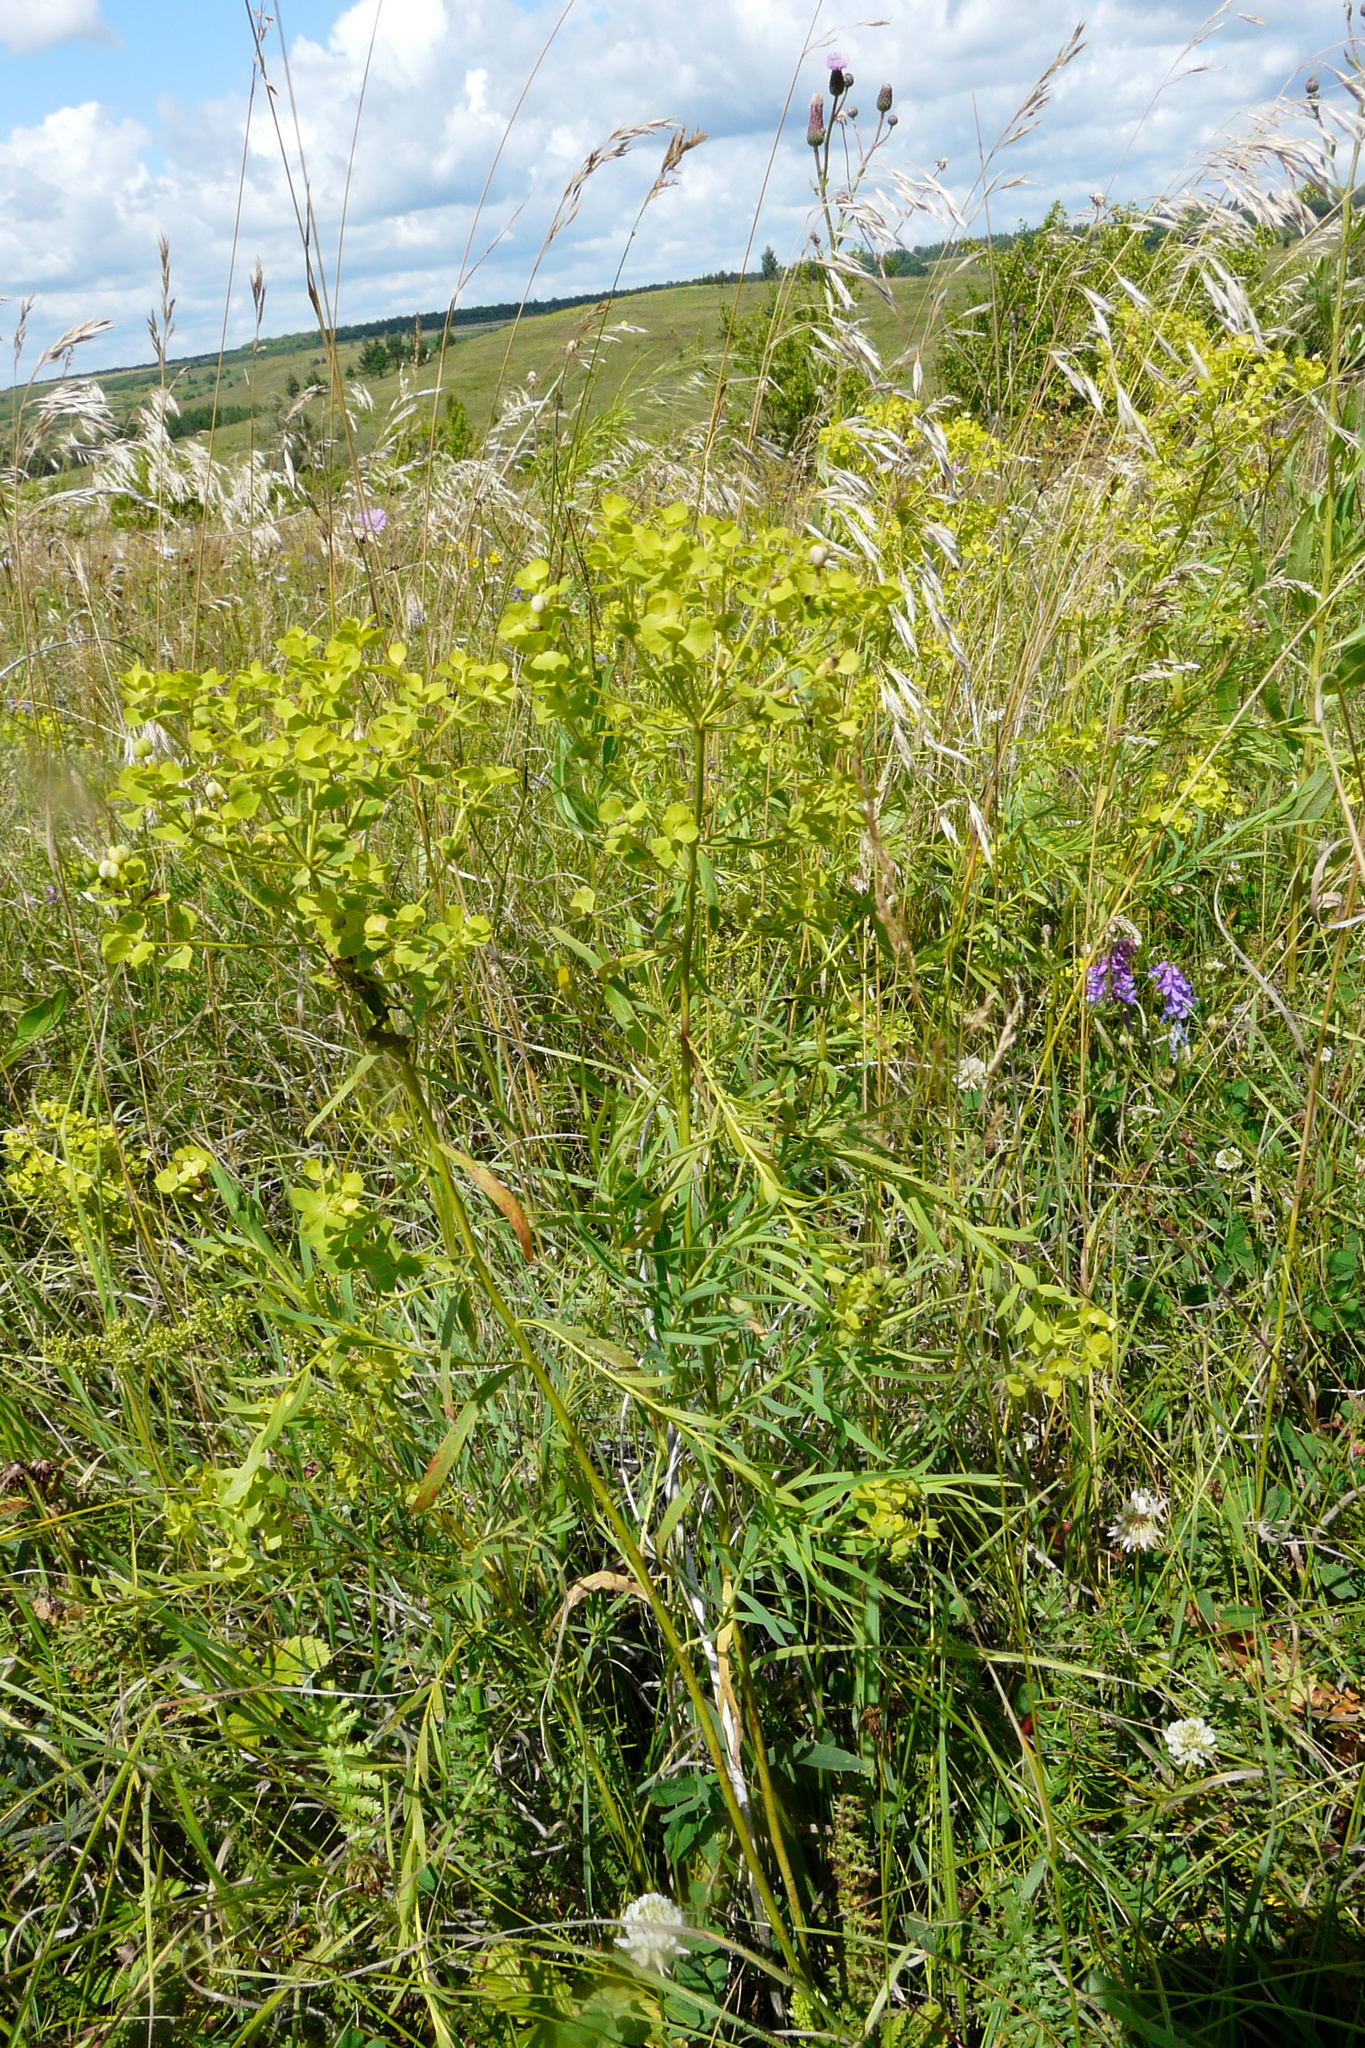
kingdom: Plantae
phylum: Tracheophyta
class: Magnoliopsida
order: Malpighiales
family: Euphorbiaceae
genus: Euphorbia
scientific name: Euphorbia virgata
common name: Leafy spurge
